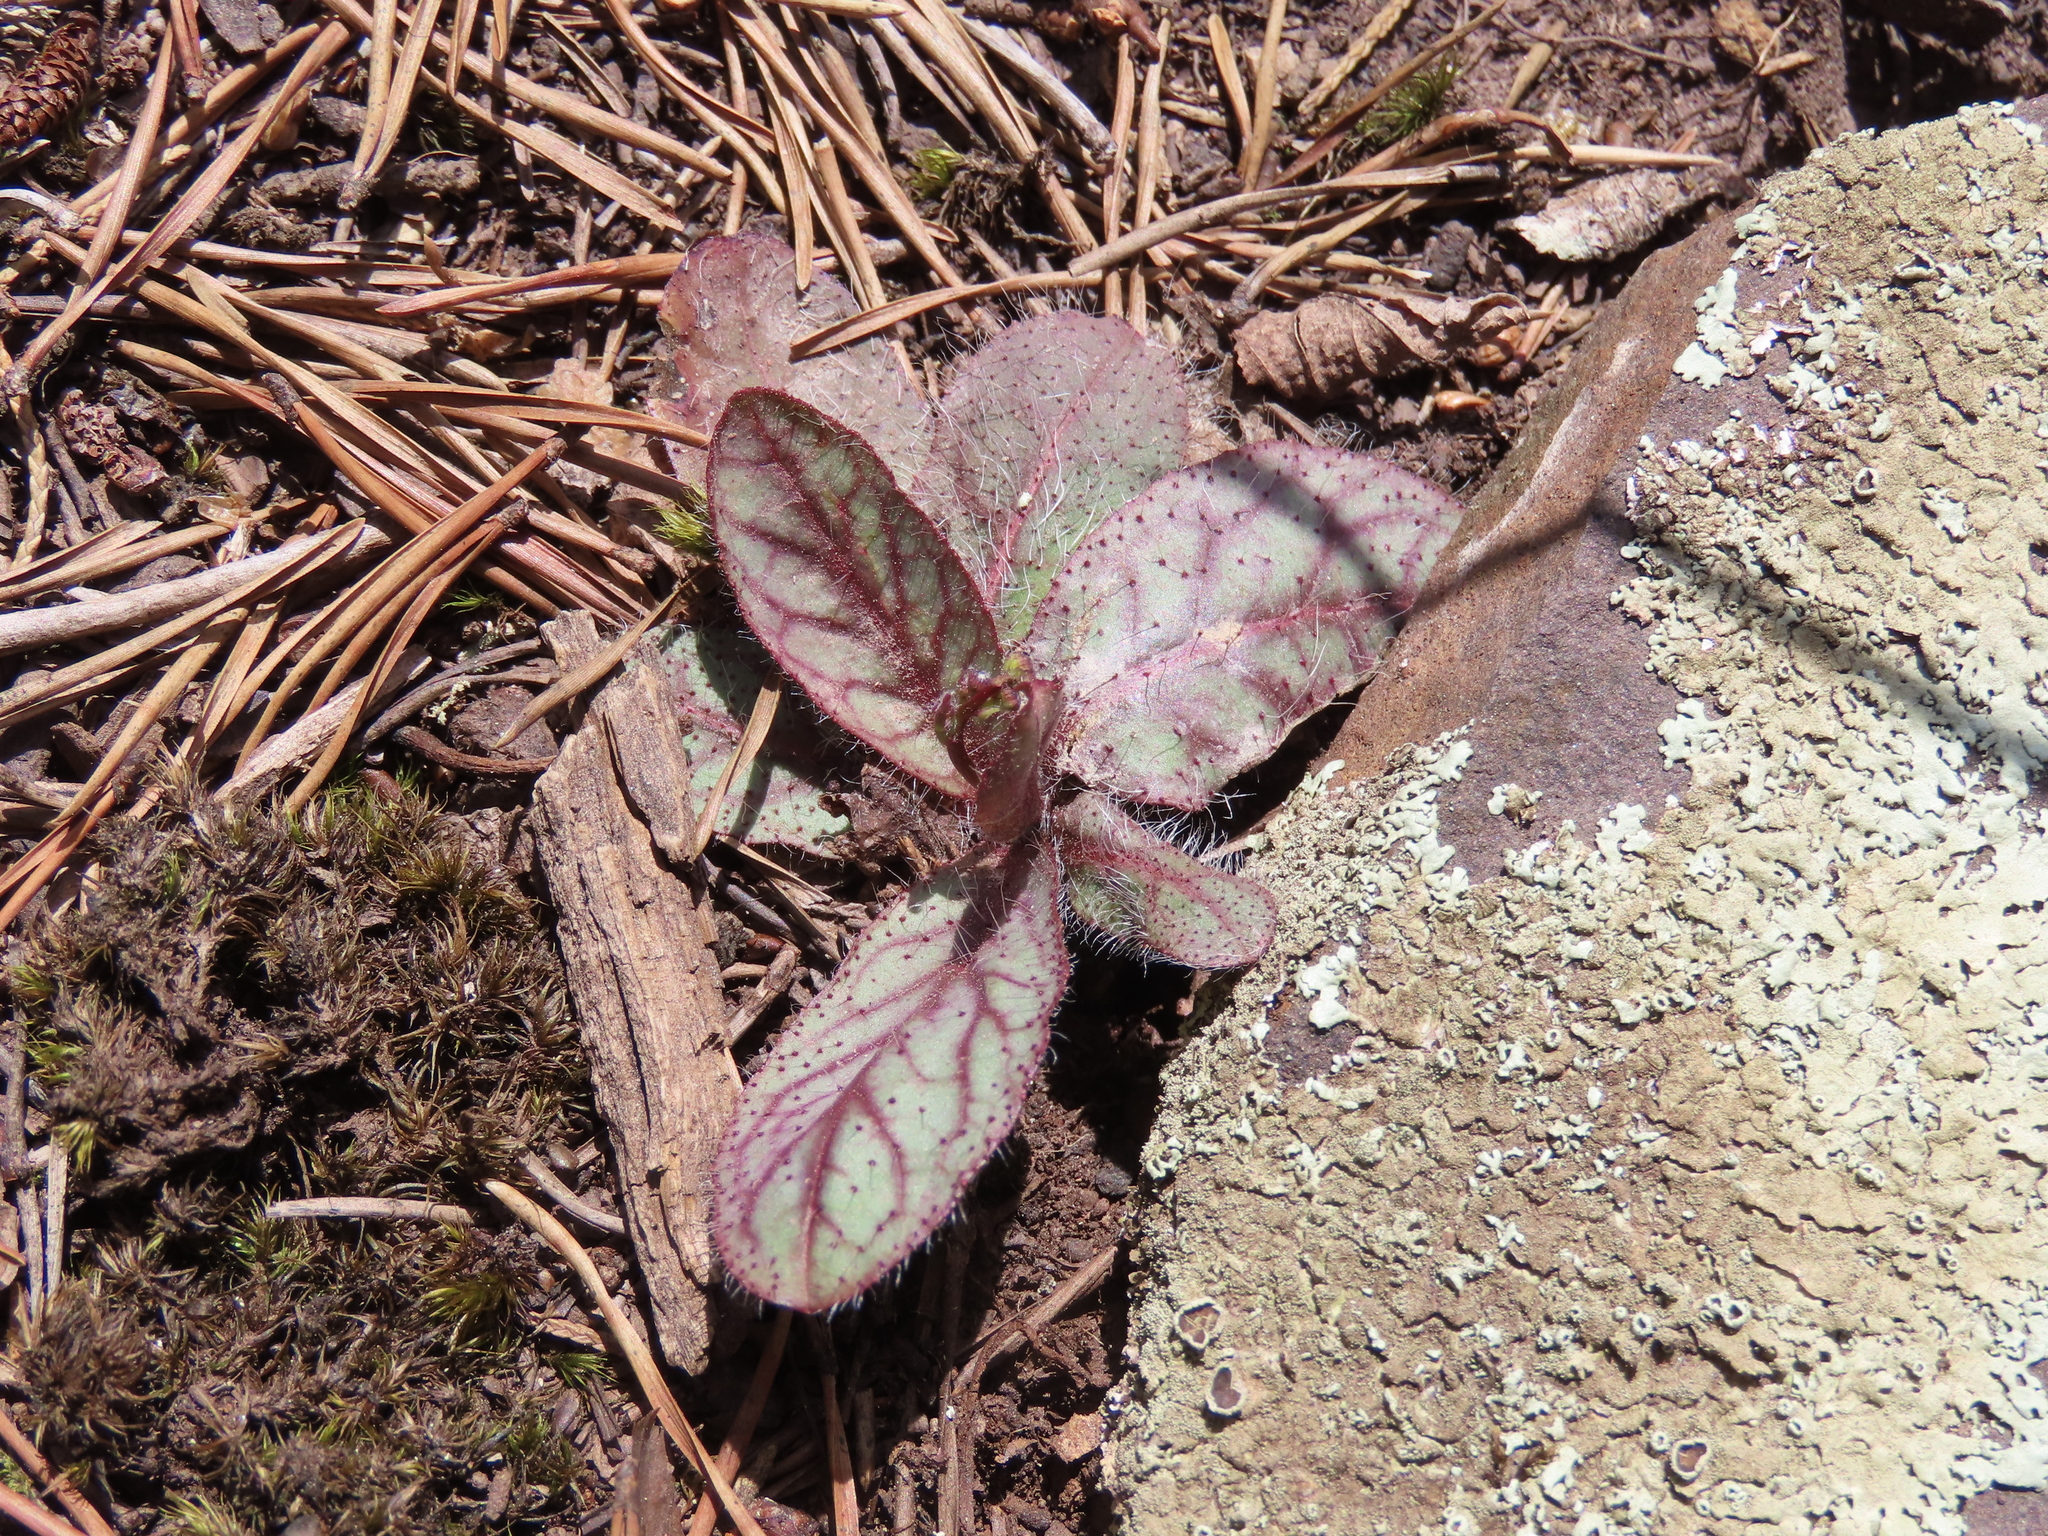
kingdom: Plantae
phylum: Tracheophyta
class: Magnoliopsida
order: Asterales
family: Asteraceae
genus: Hieracium
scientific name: Hieracium venosum
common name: Rattlesnake hawkweed
